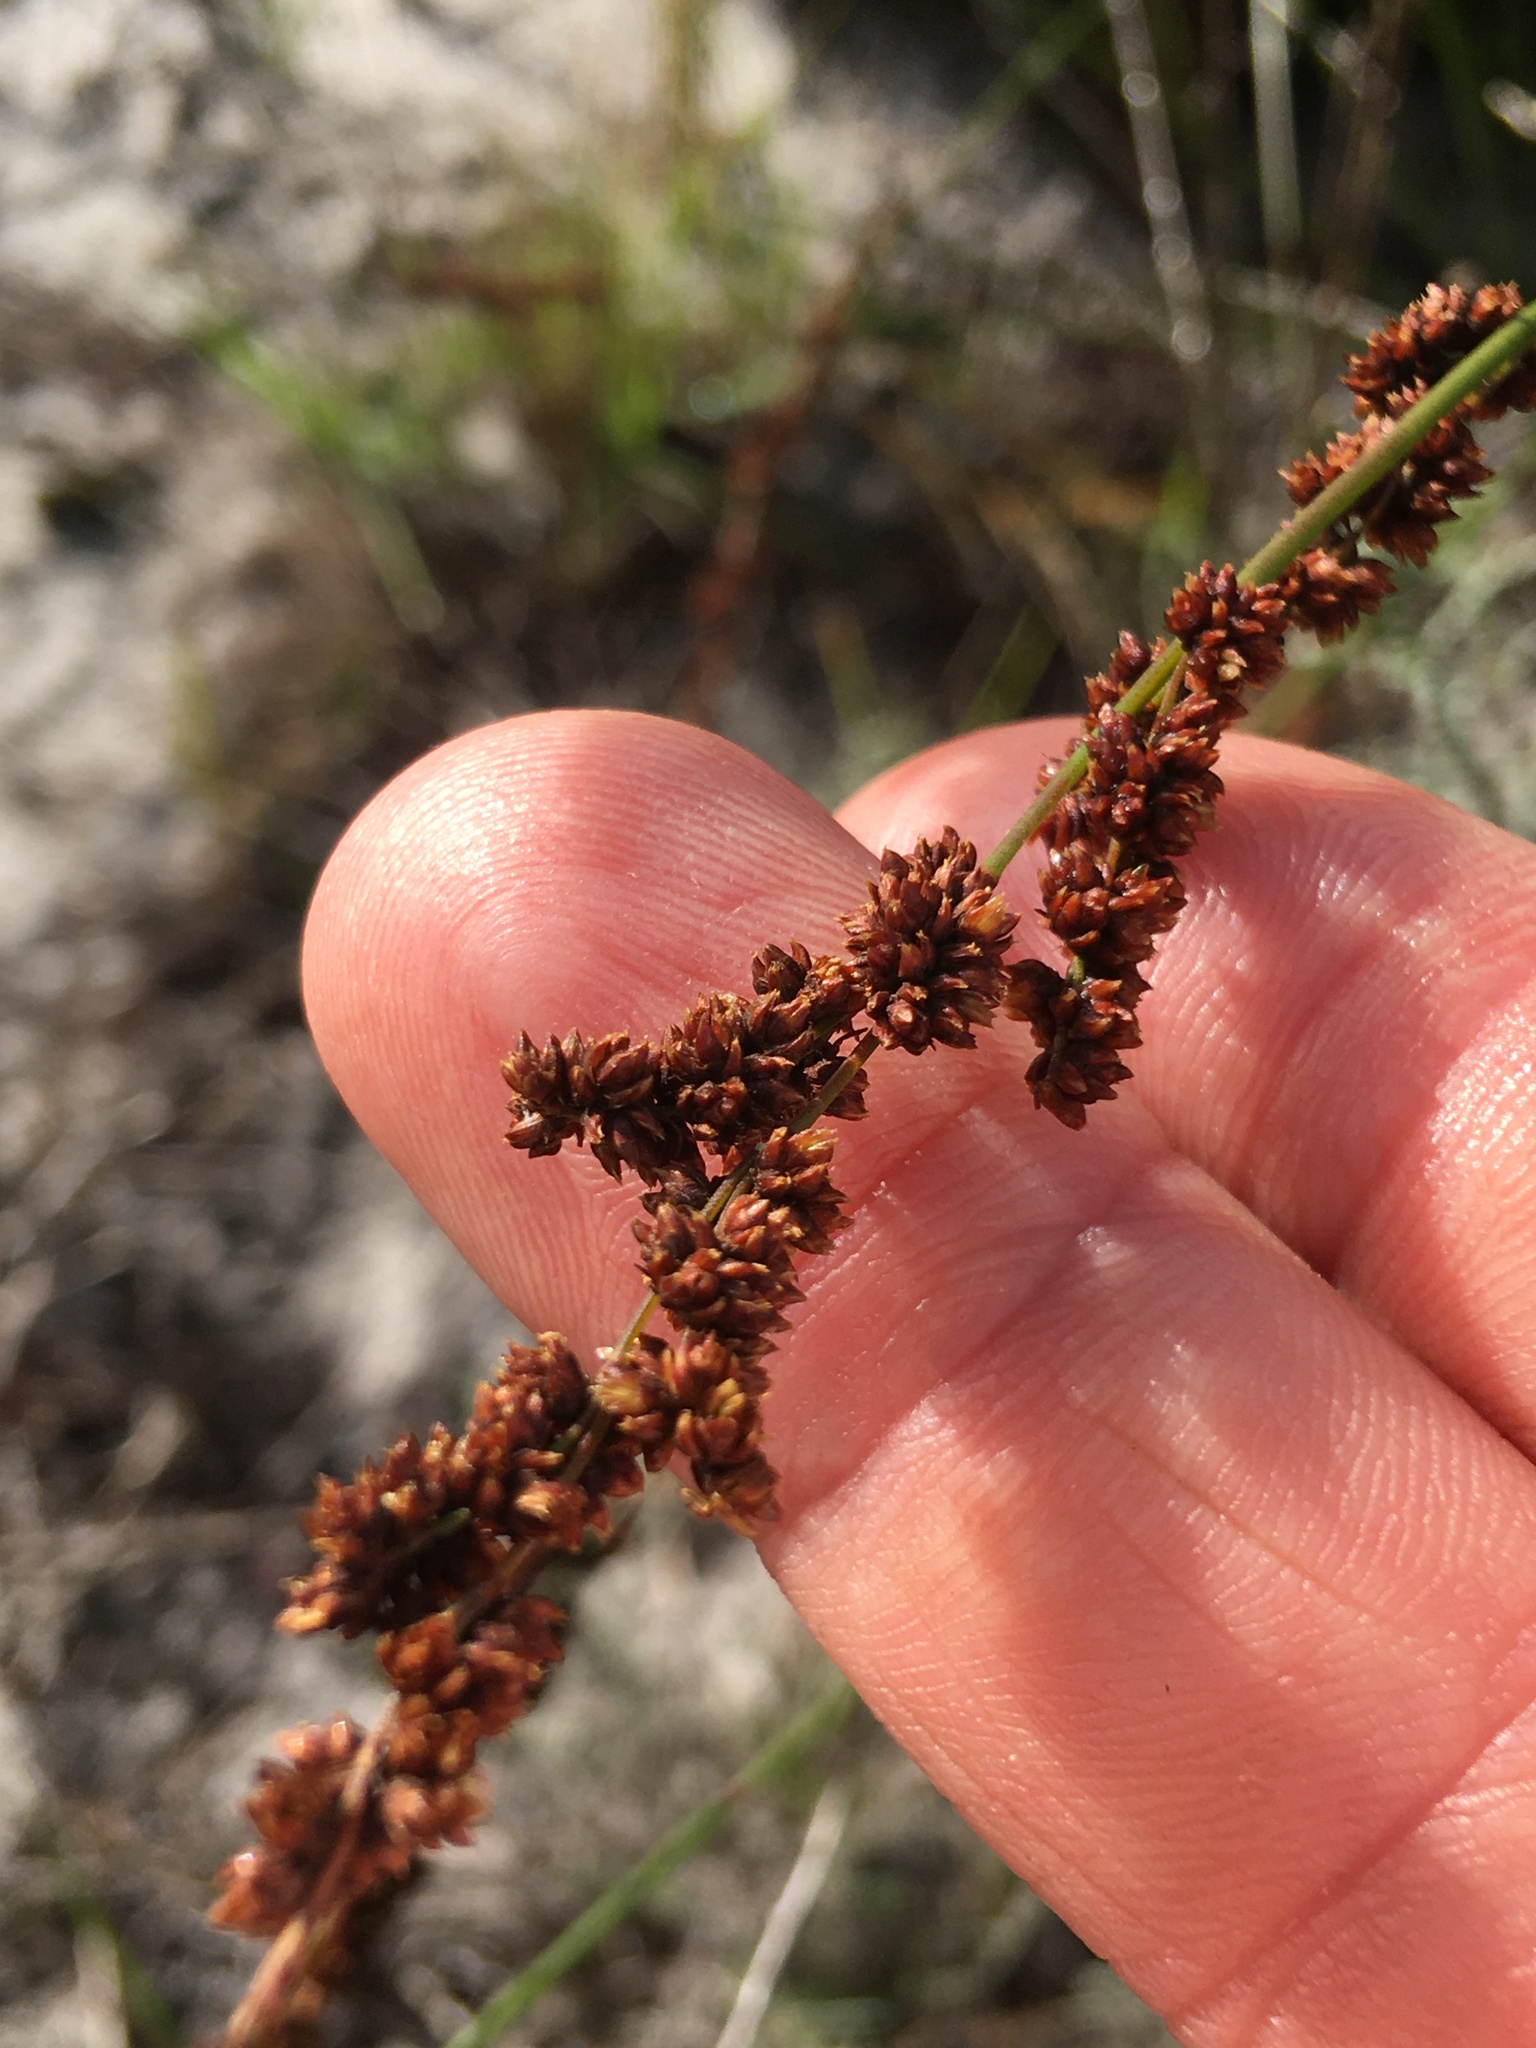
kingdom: Plantae
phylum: Tracheophyta
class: Liliopsida
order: Poales
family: Restionaceae
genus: Elegia
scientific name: Elegia nuda
